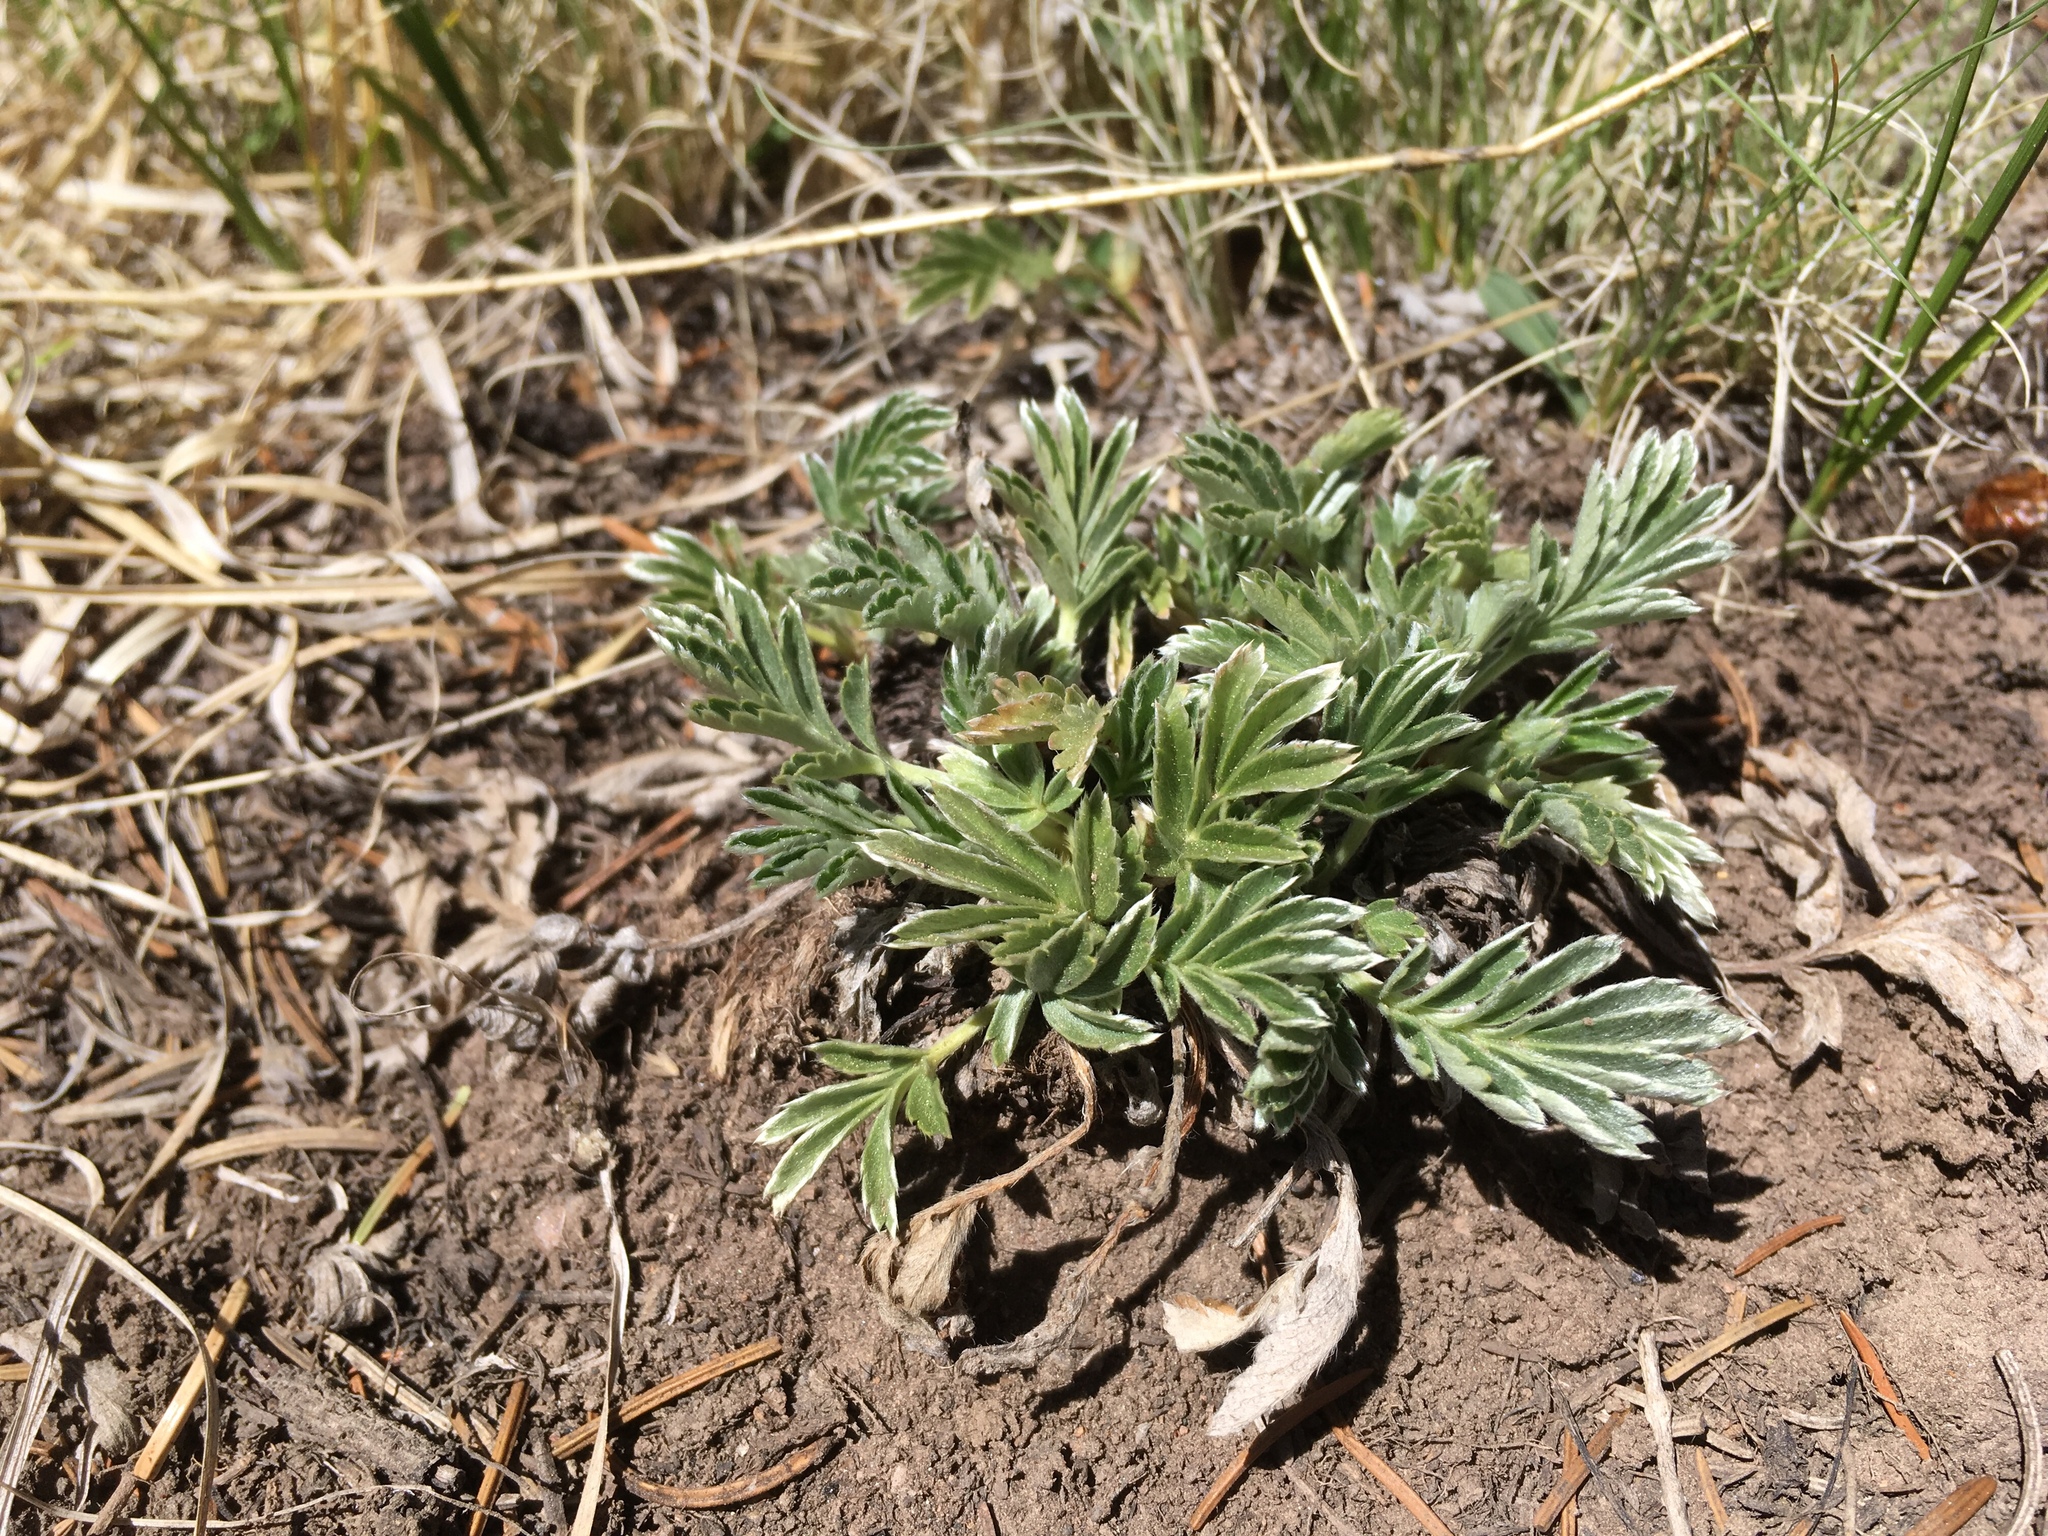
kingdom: Plantae
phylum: Tracheophyta
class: Magnoliopsida
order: Rosales
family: Rosaceae
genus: Potentilla
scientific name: Potentilla hippiana
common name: Woolly cinquefoil
